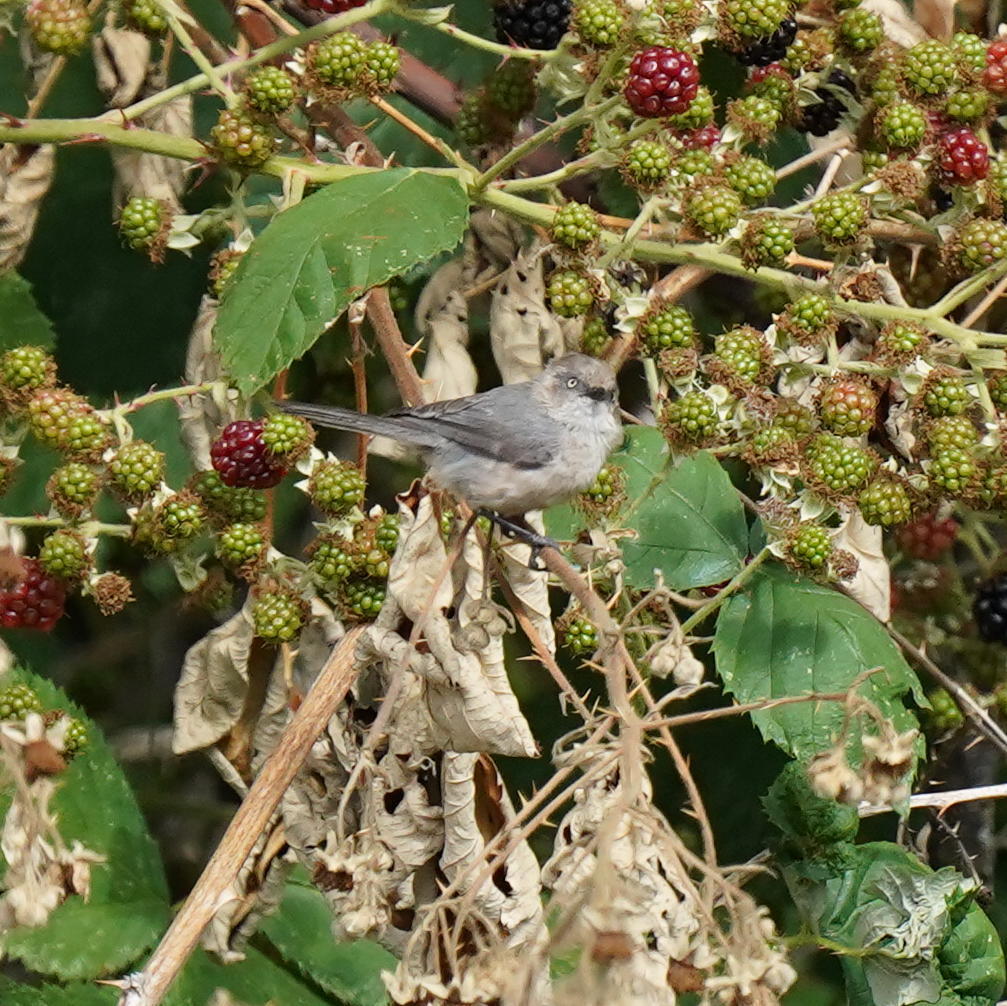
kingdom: Animalia
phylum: Chordata
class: Aves
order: Passeriformes
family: Aegithalidae
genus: Psaltriparus
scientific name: Psaltriparus minimus
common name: American bushtit
